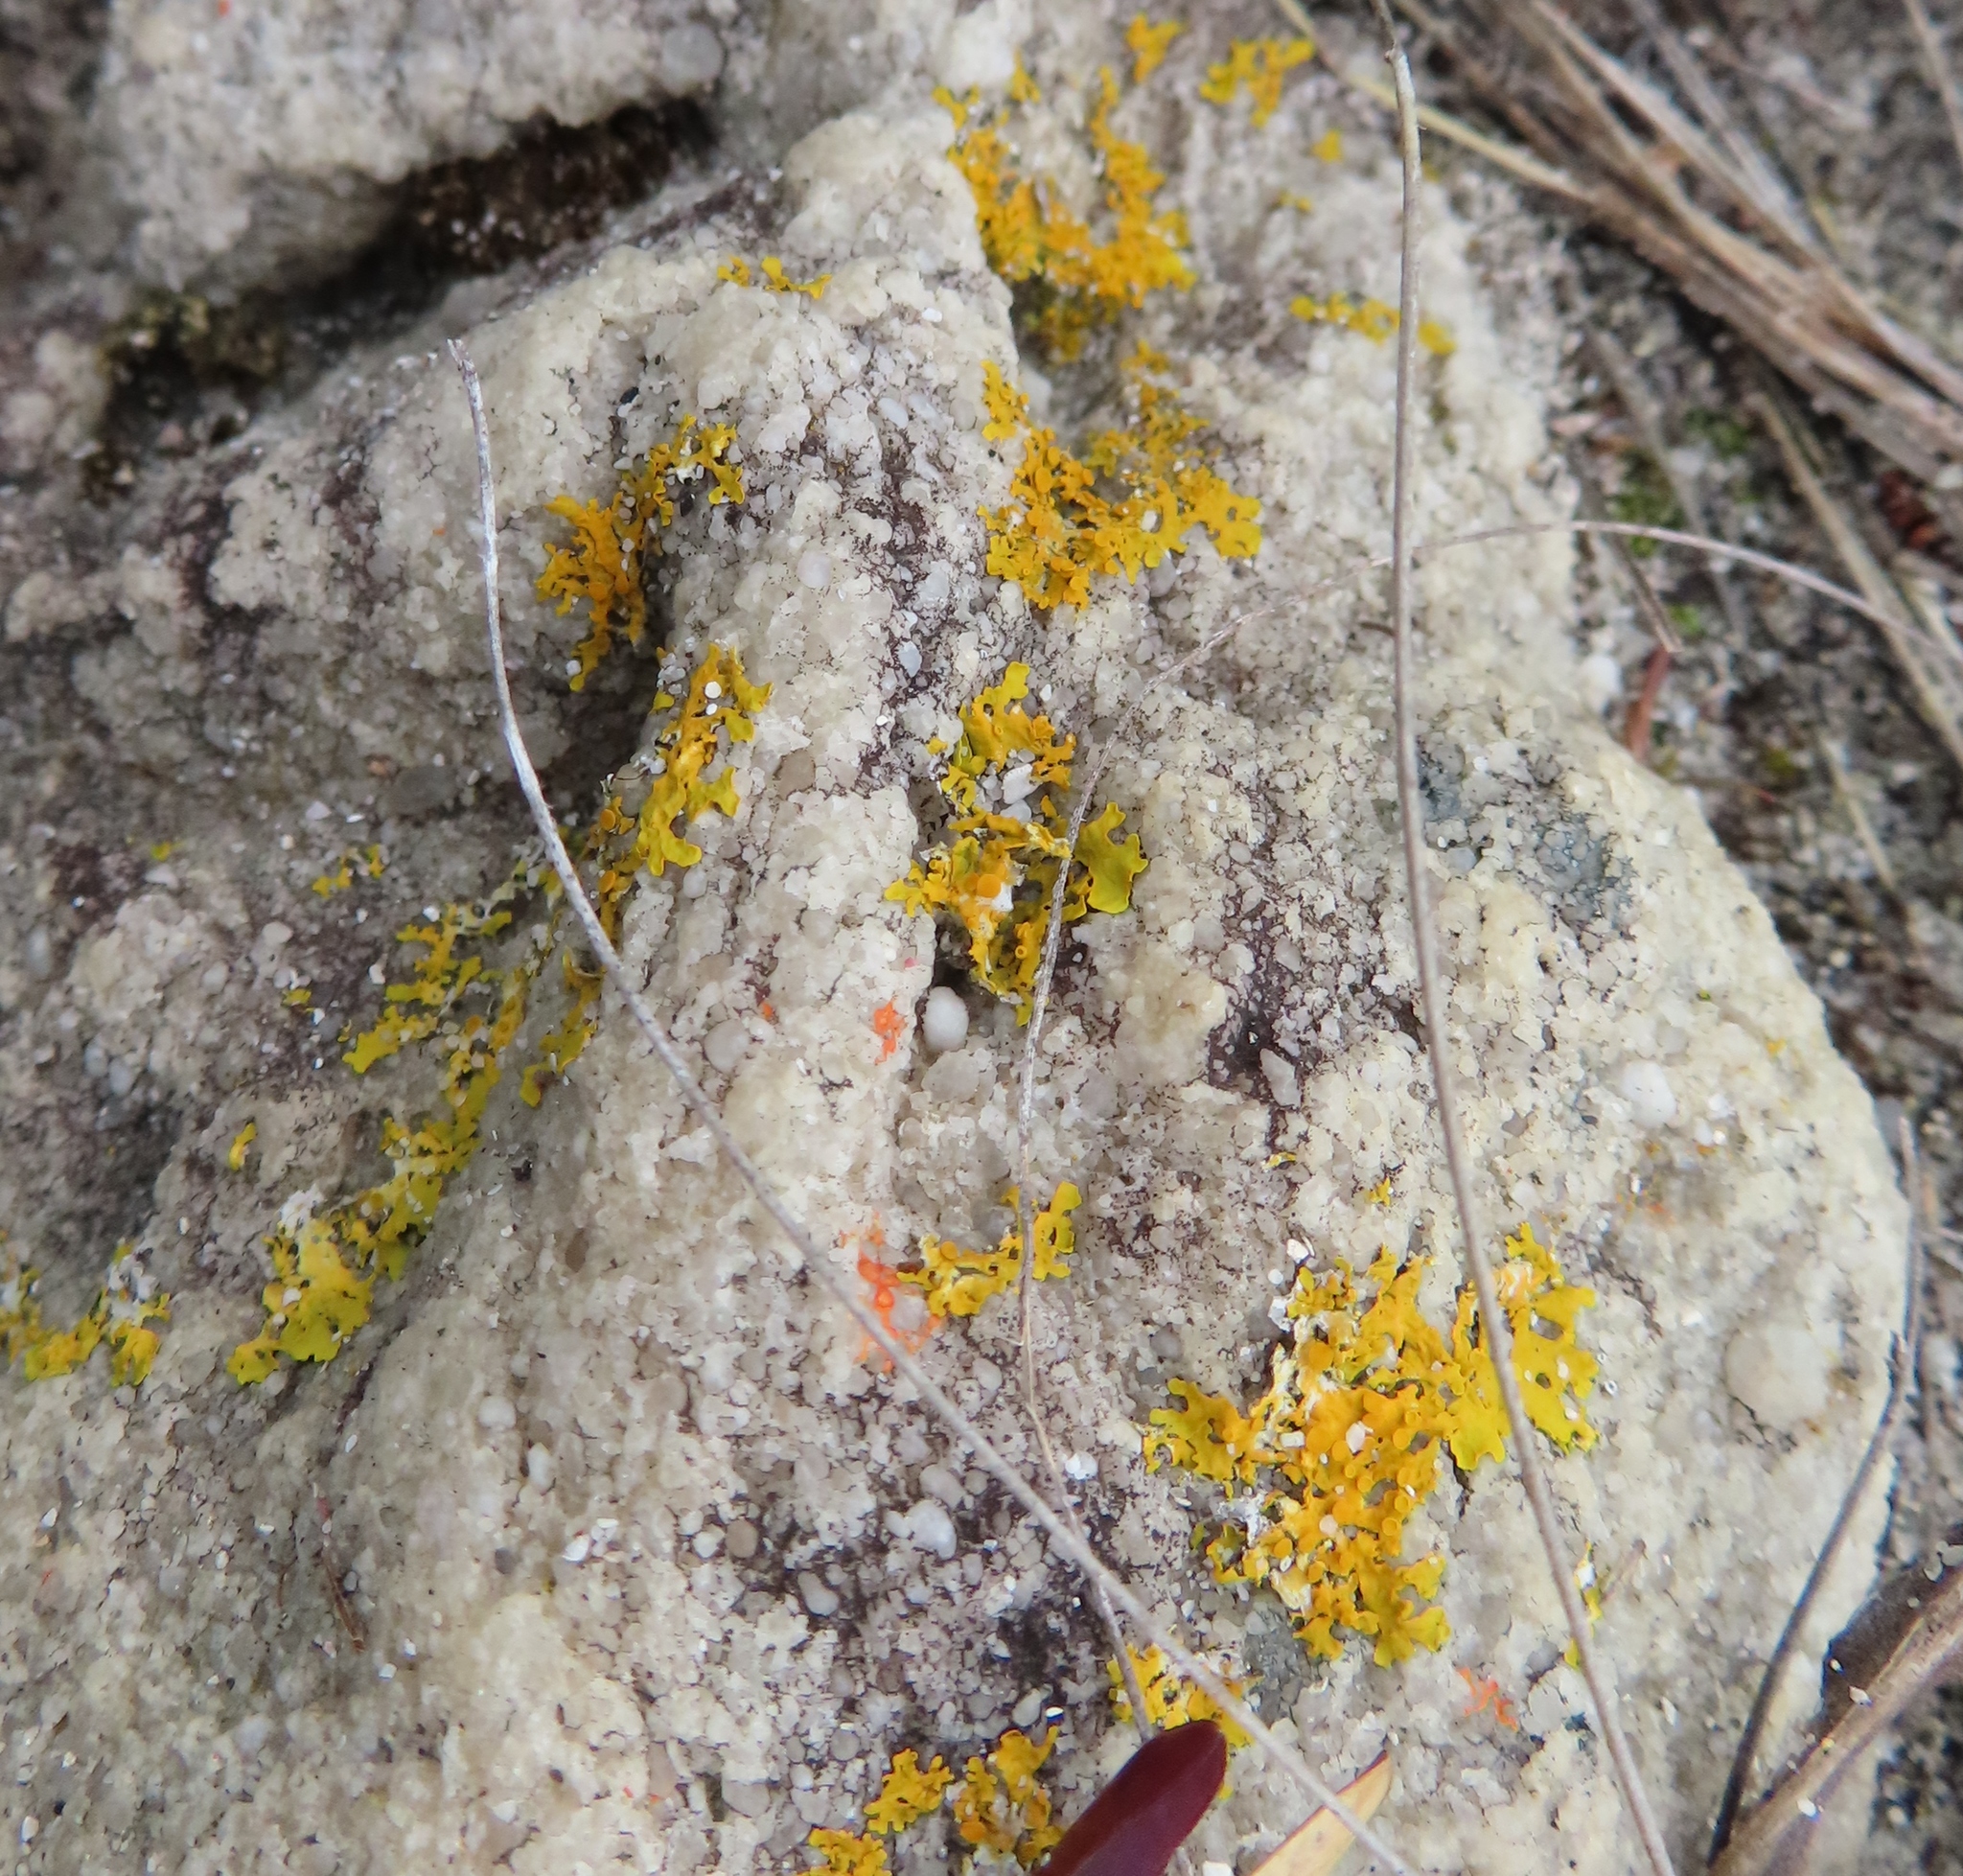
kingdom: Fungi
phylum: Ascomycota
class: Lecanoromycetes
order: Teloschistales
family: Teloschistaceae
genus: Xanthoria
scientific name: Xanthoria parietina
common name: Common orange lichen
